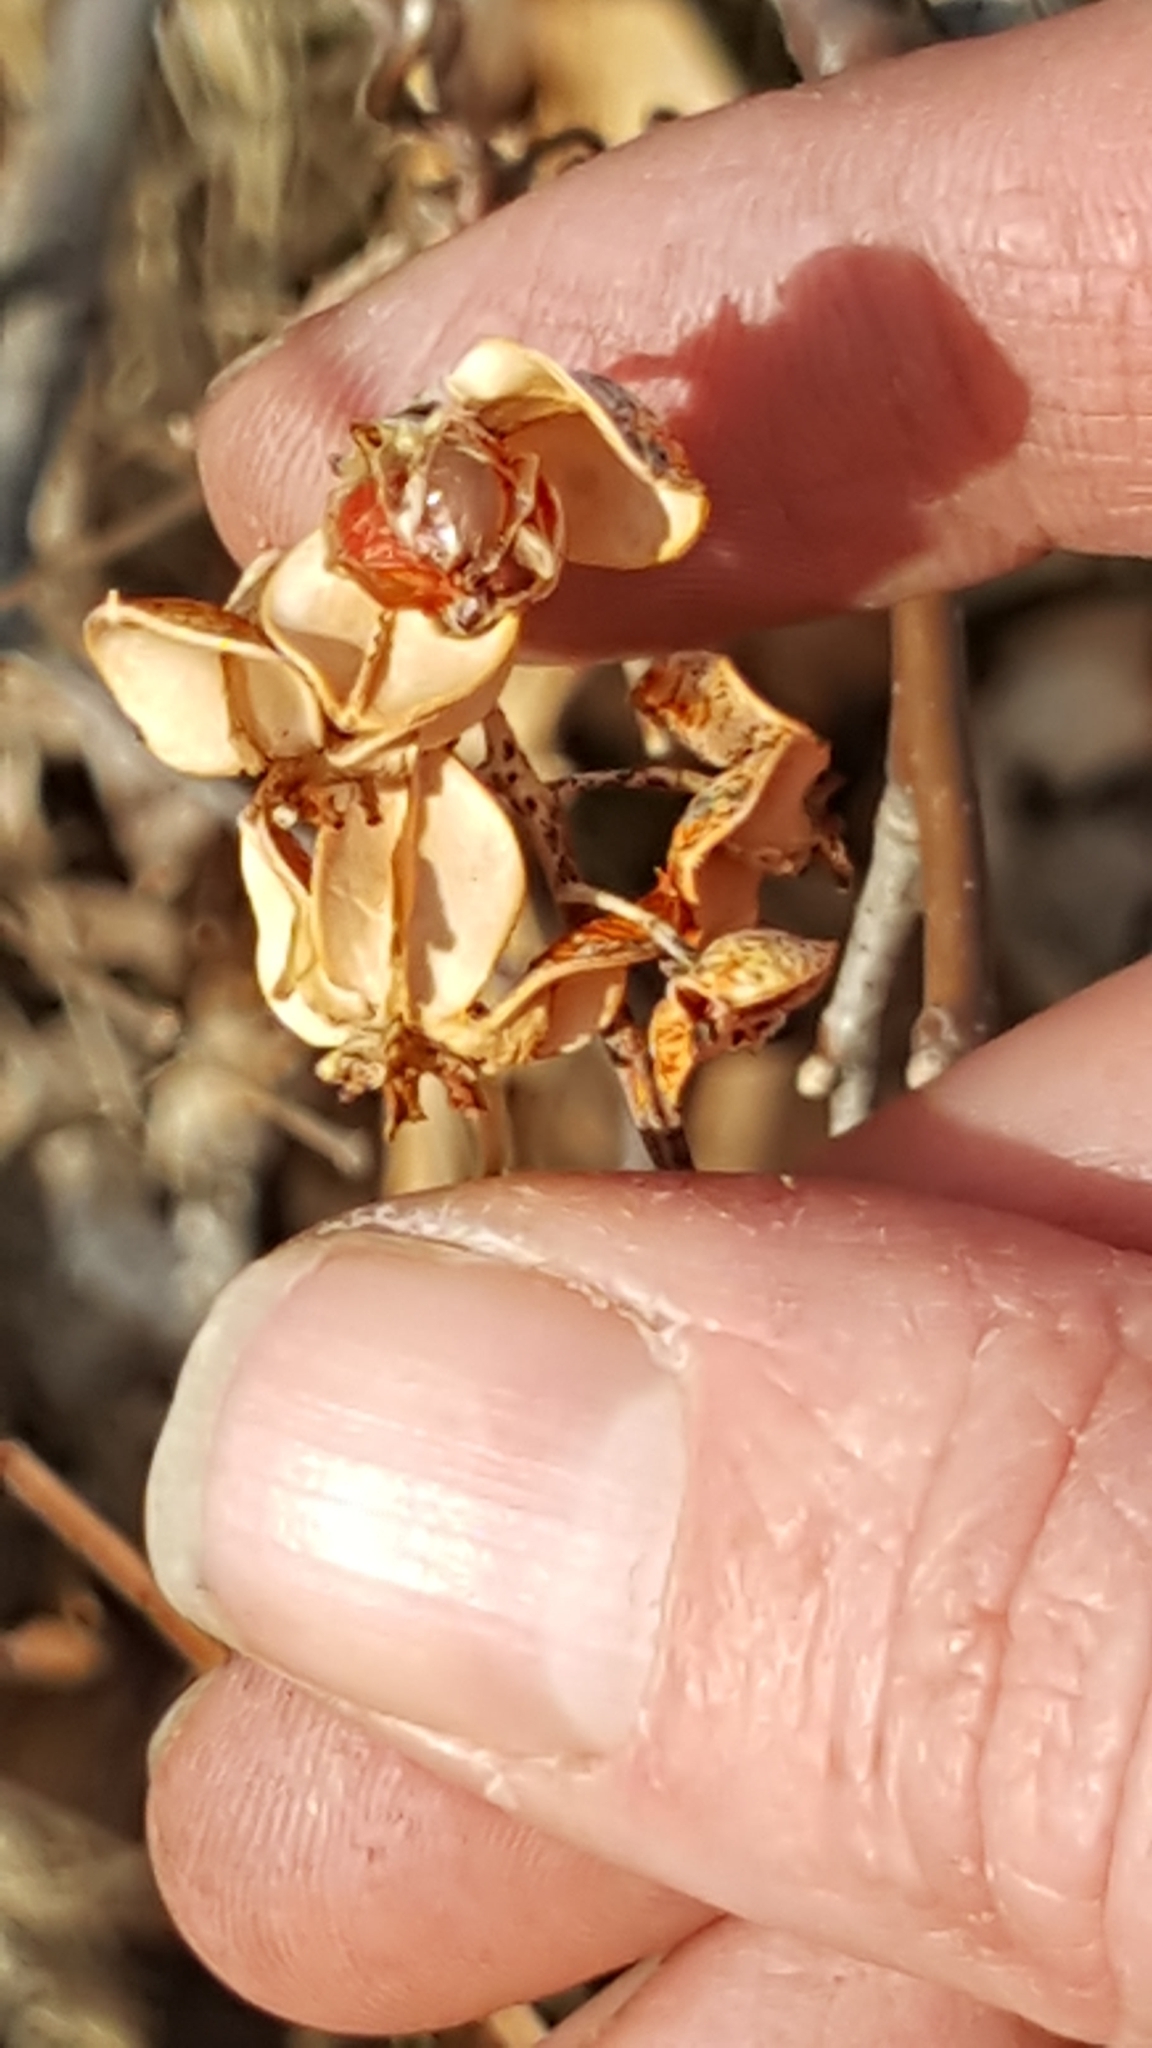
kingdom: Plantae
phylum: Tracheophyta
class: Magnoliopsida
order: Celastrales
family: Celastraceae
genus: Celastrus
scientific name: Celastrus scandens
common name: American bittersweet
